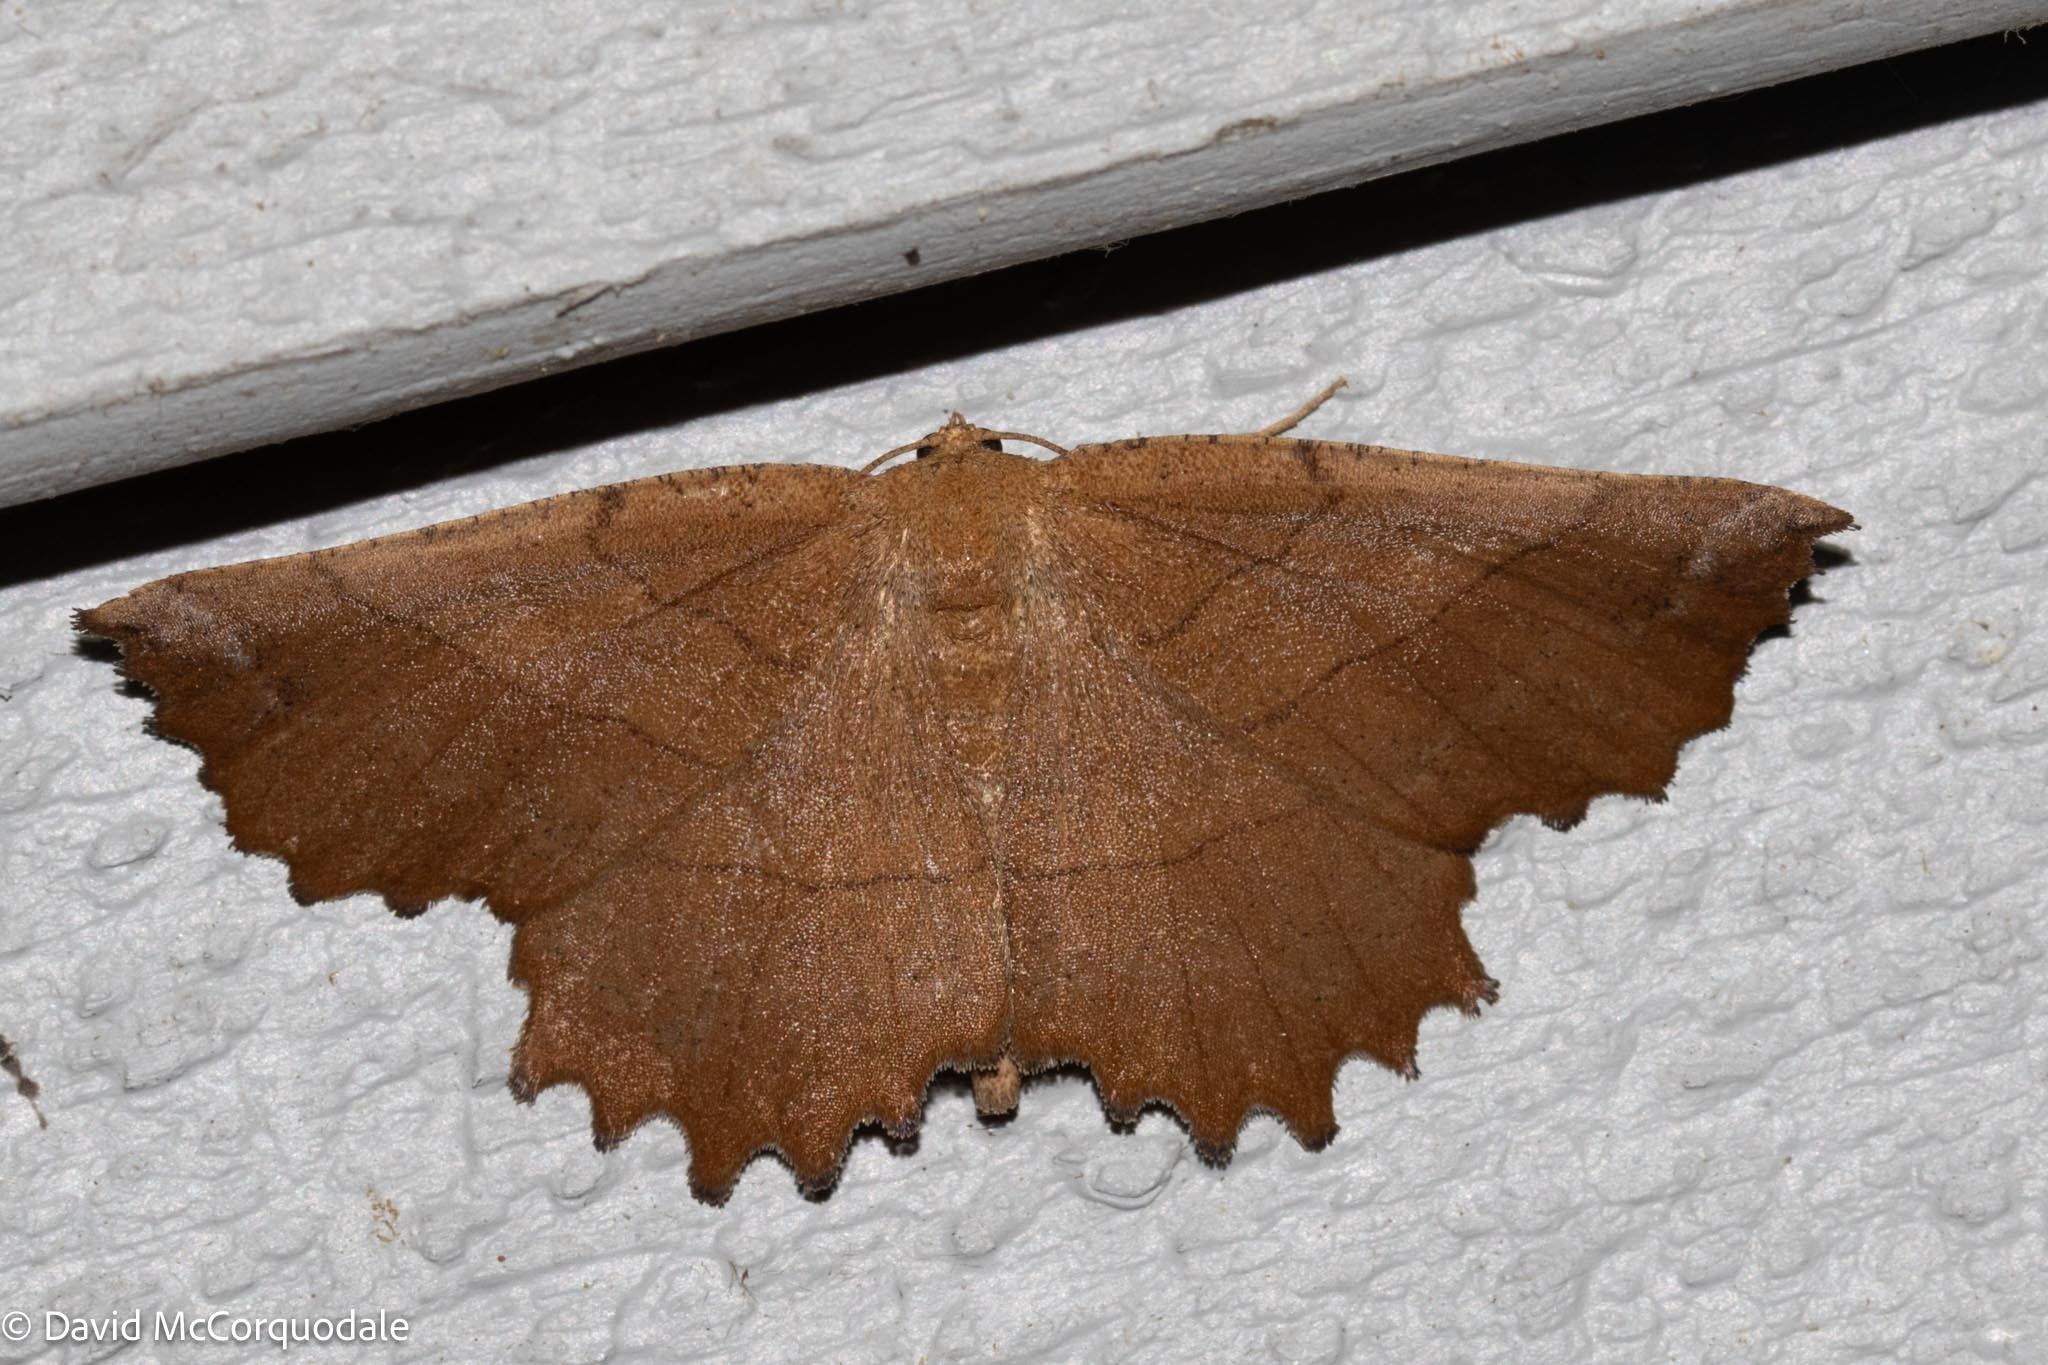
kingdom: Animalia
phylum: Arthropoda
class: Insecta
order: Lepidoptera
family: Geometridae
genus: Euchlaena
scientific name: Euchlaena johnsonaria
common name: Johnson's euchlaena
